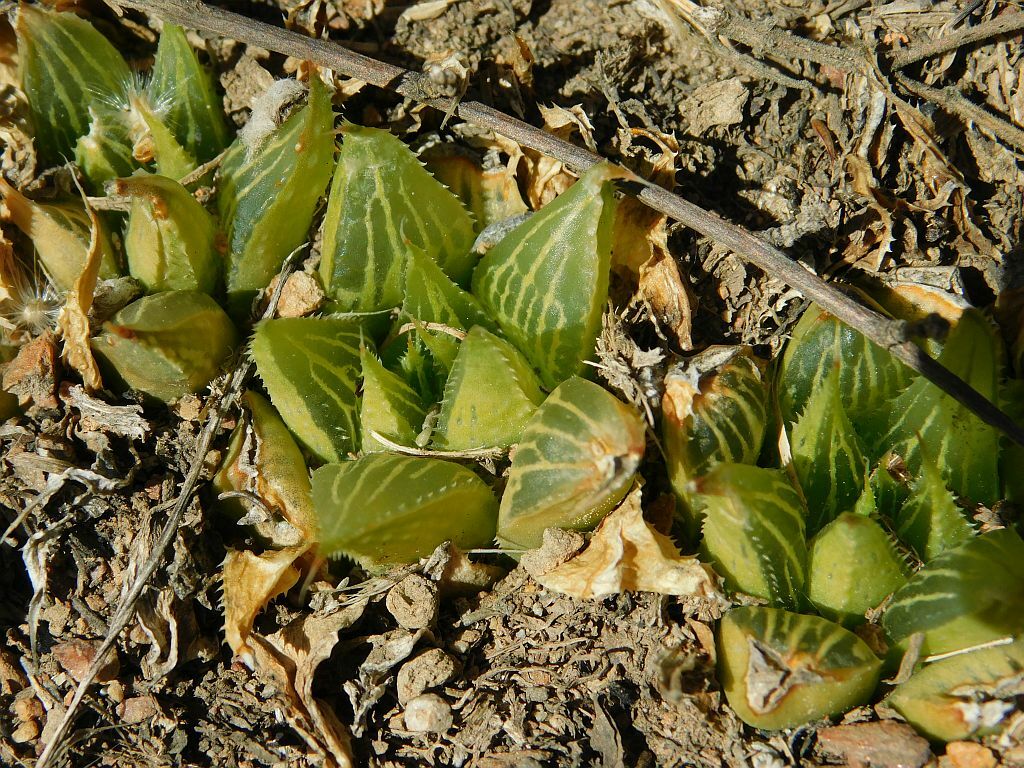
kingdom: Plantae
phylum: Tracheophyta
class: Liliopsida
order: Asparagales
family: Asphodelaceae
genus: Haworthia
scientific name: Haworthia mirabilis
